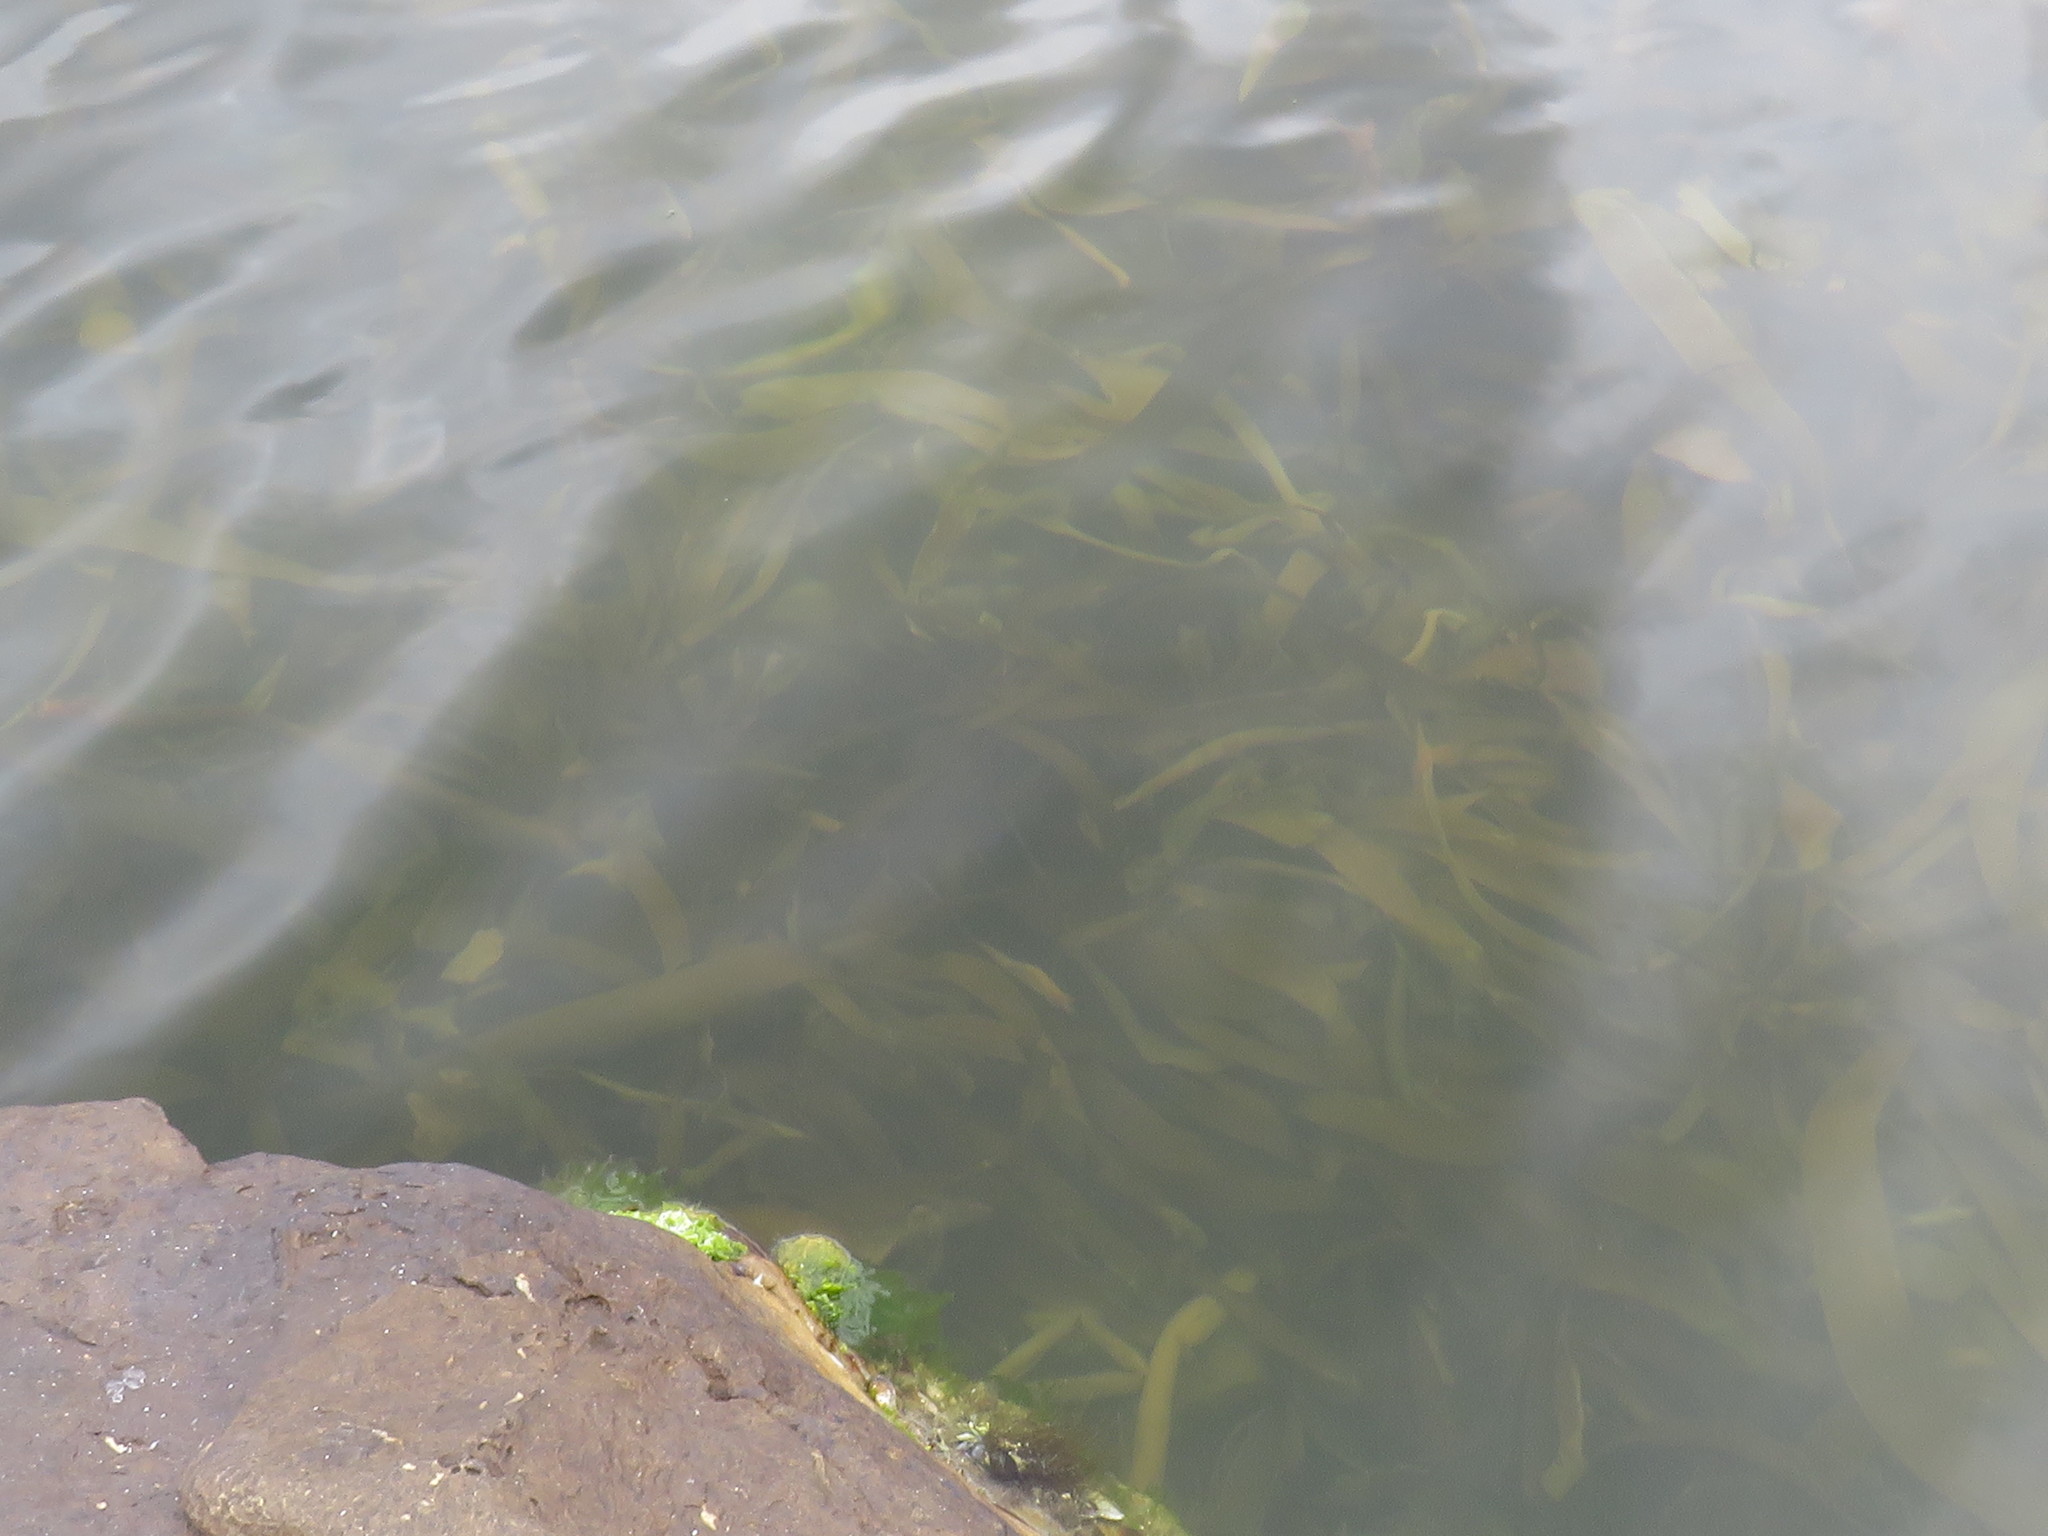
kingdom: Chromista
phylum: Ochrophyta
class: Phaeophyceae
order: Laminariales
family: Lessoniaceae
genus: Ecklonia
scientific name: Ecklonia
